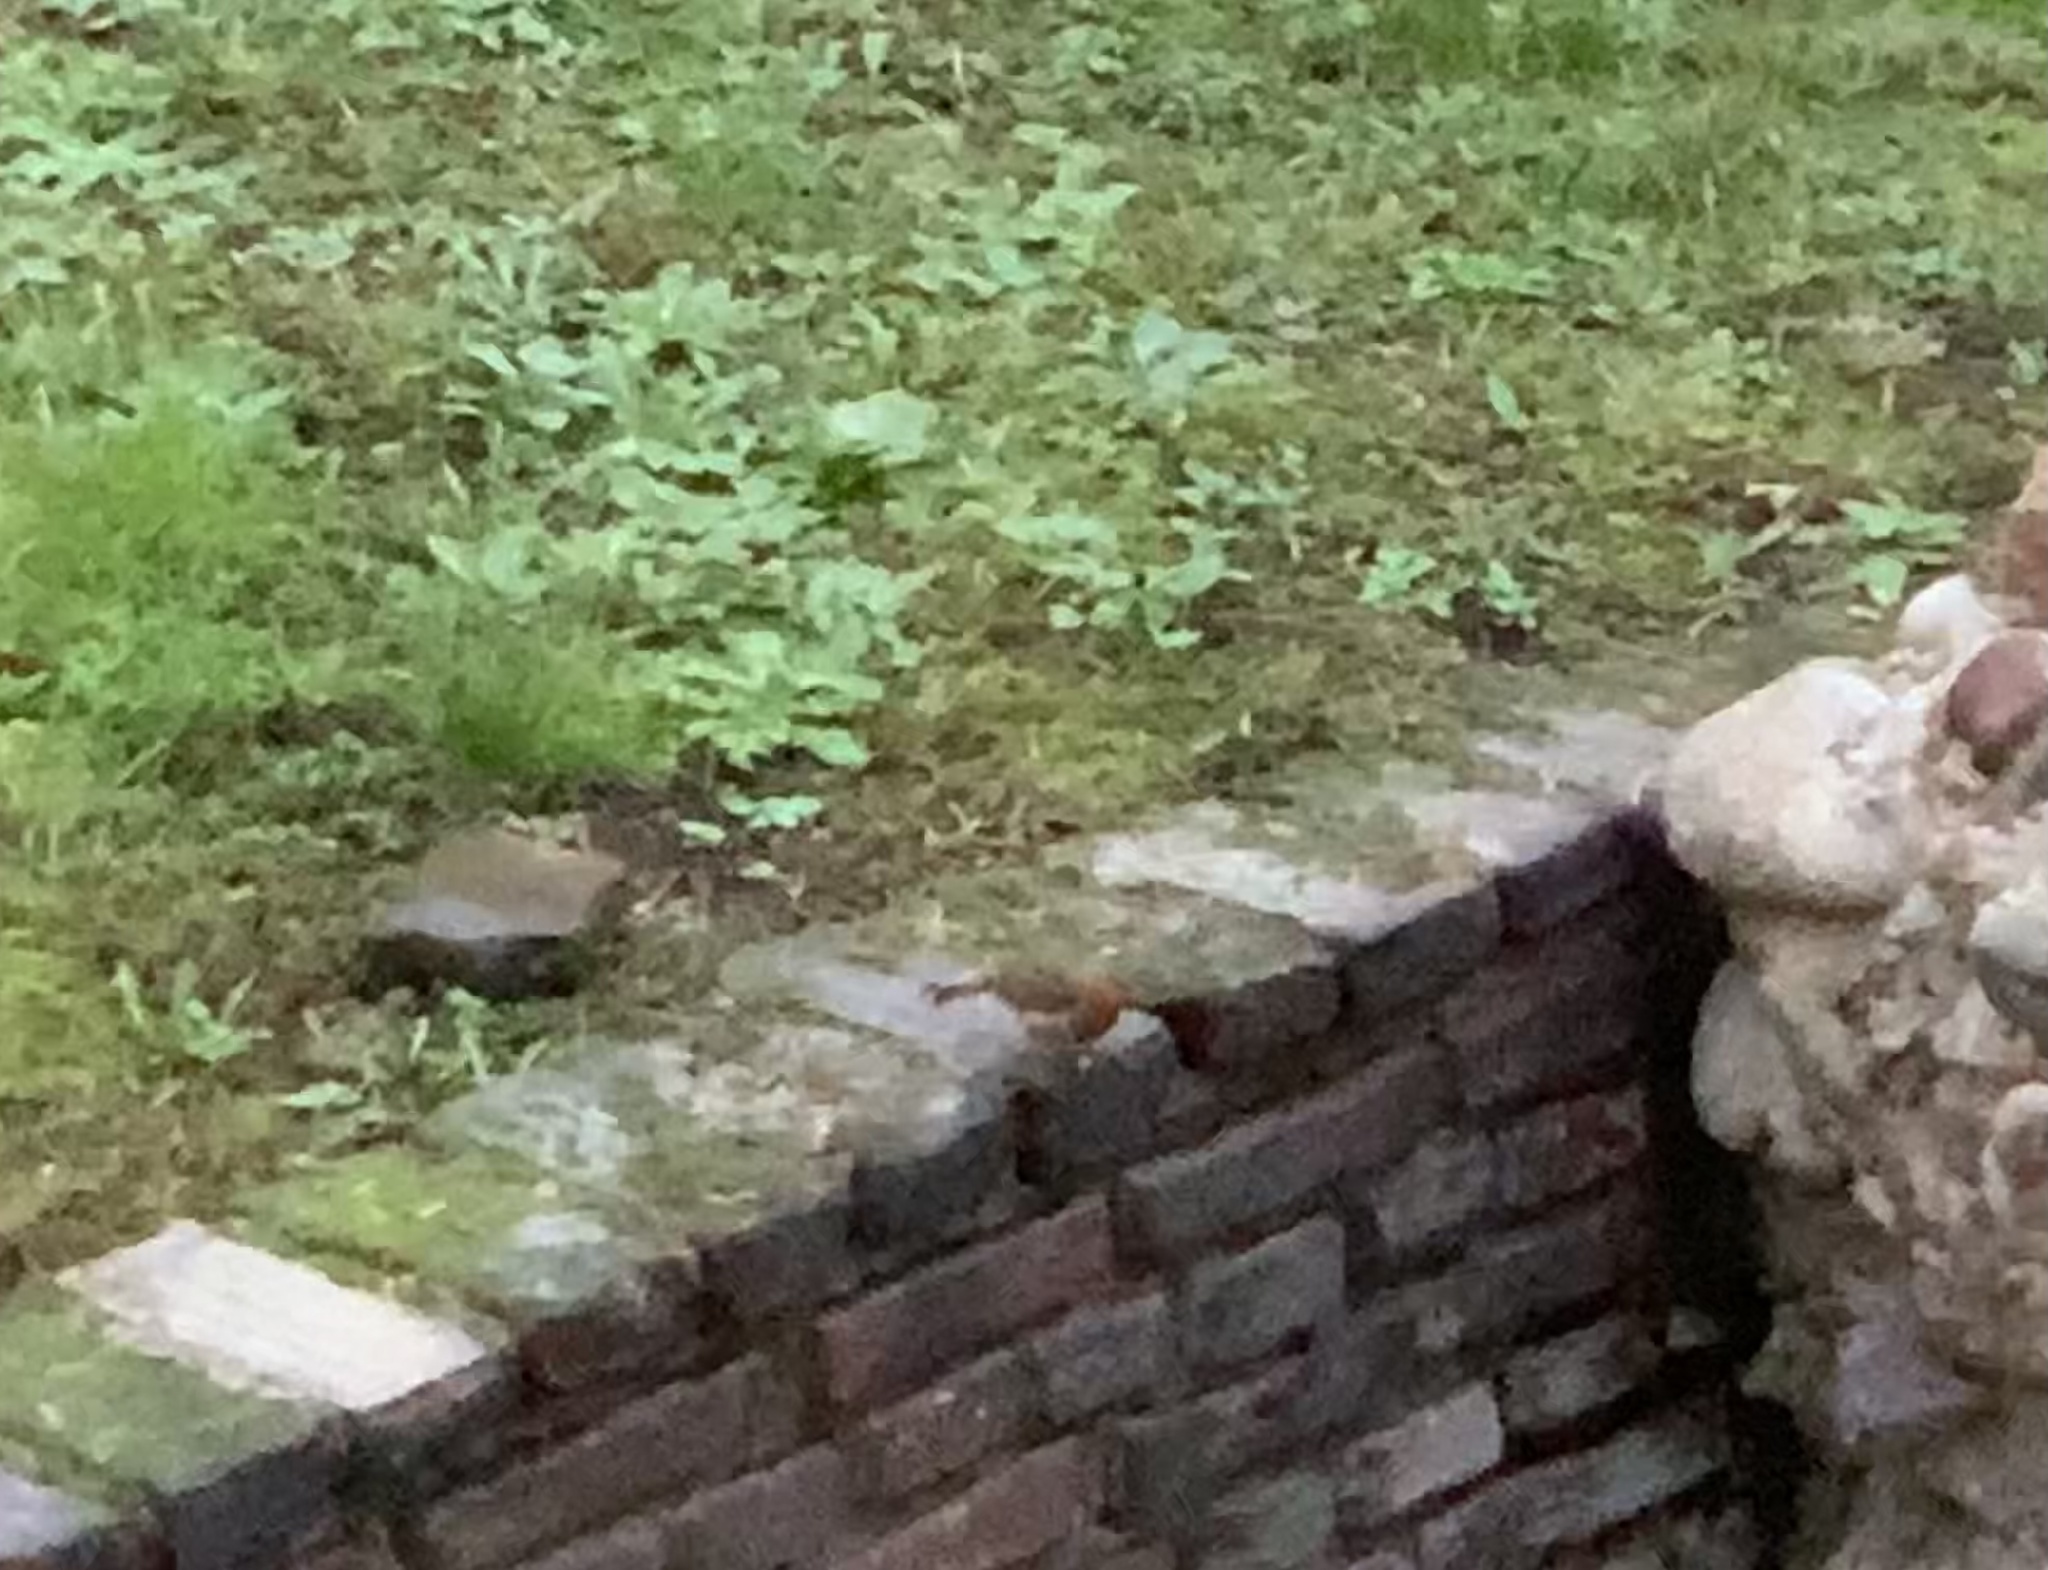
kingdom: Animalia
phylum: Chordata
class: Aves
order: Passeriformes
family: Muscicapidae
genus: Erithacus
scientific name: Erithacus rubecula
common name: European robin
